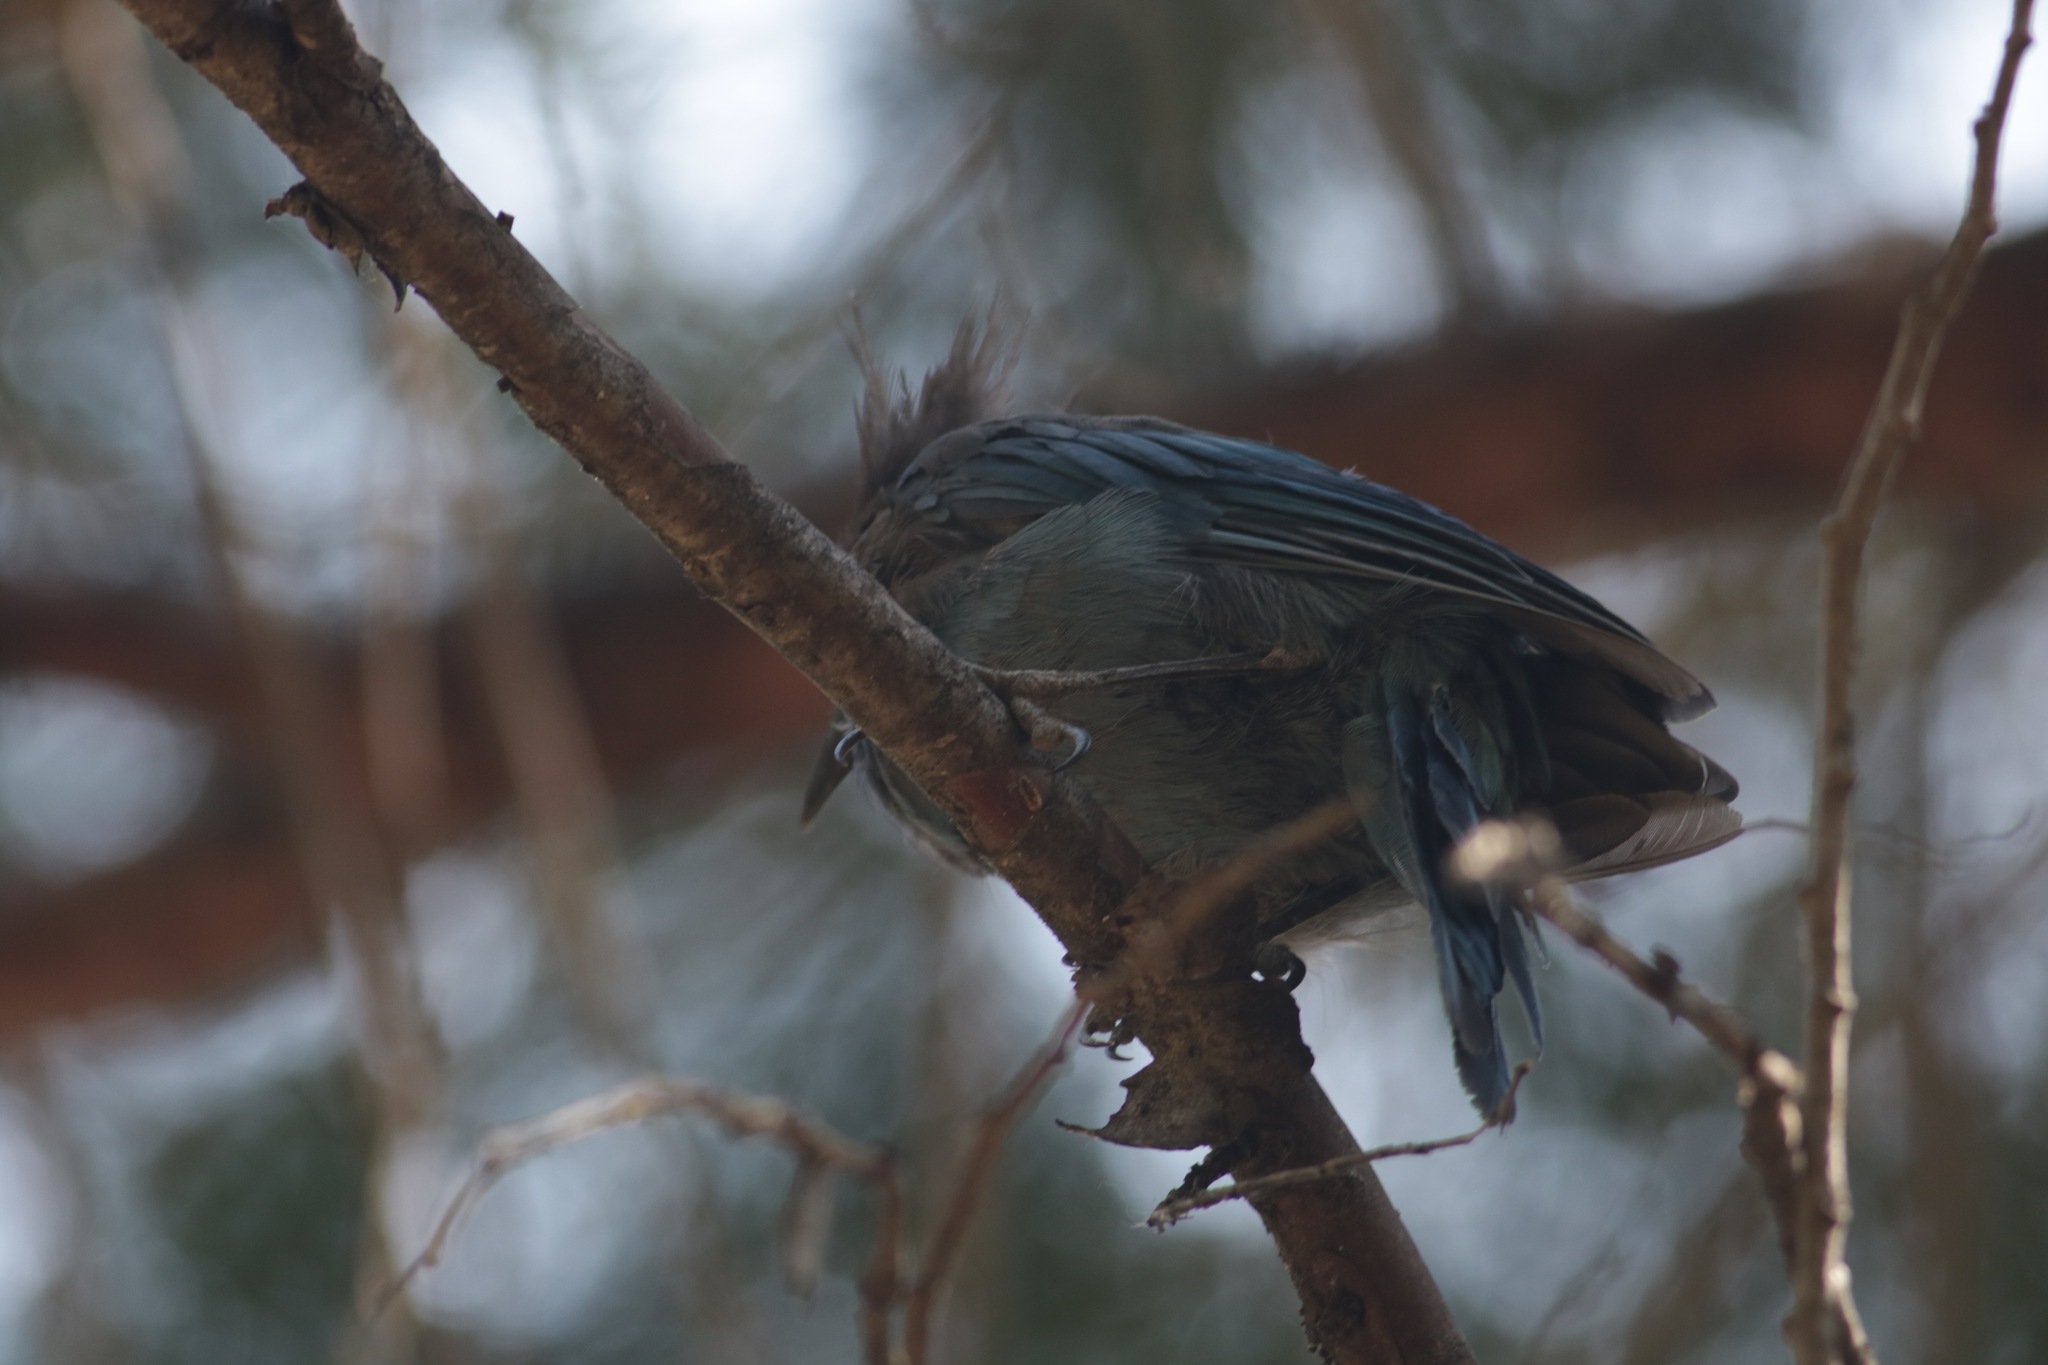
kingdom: Animalia
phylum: Chordata
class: Aves
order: Passeriformes
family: Corvidae
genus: Cyanocitta
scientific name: Cyanocitta stelleri
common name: Steller's jay
